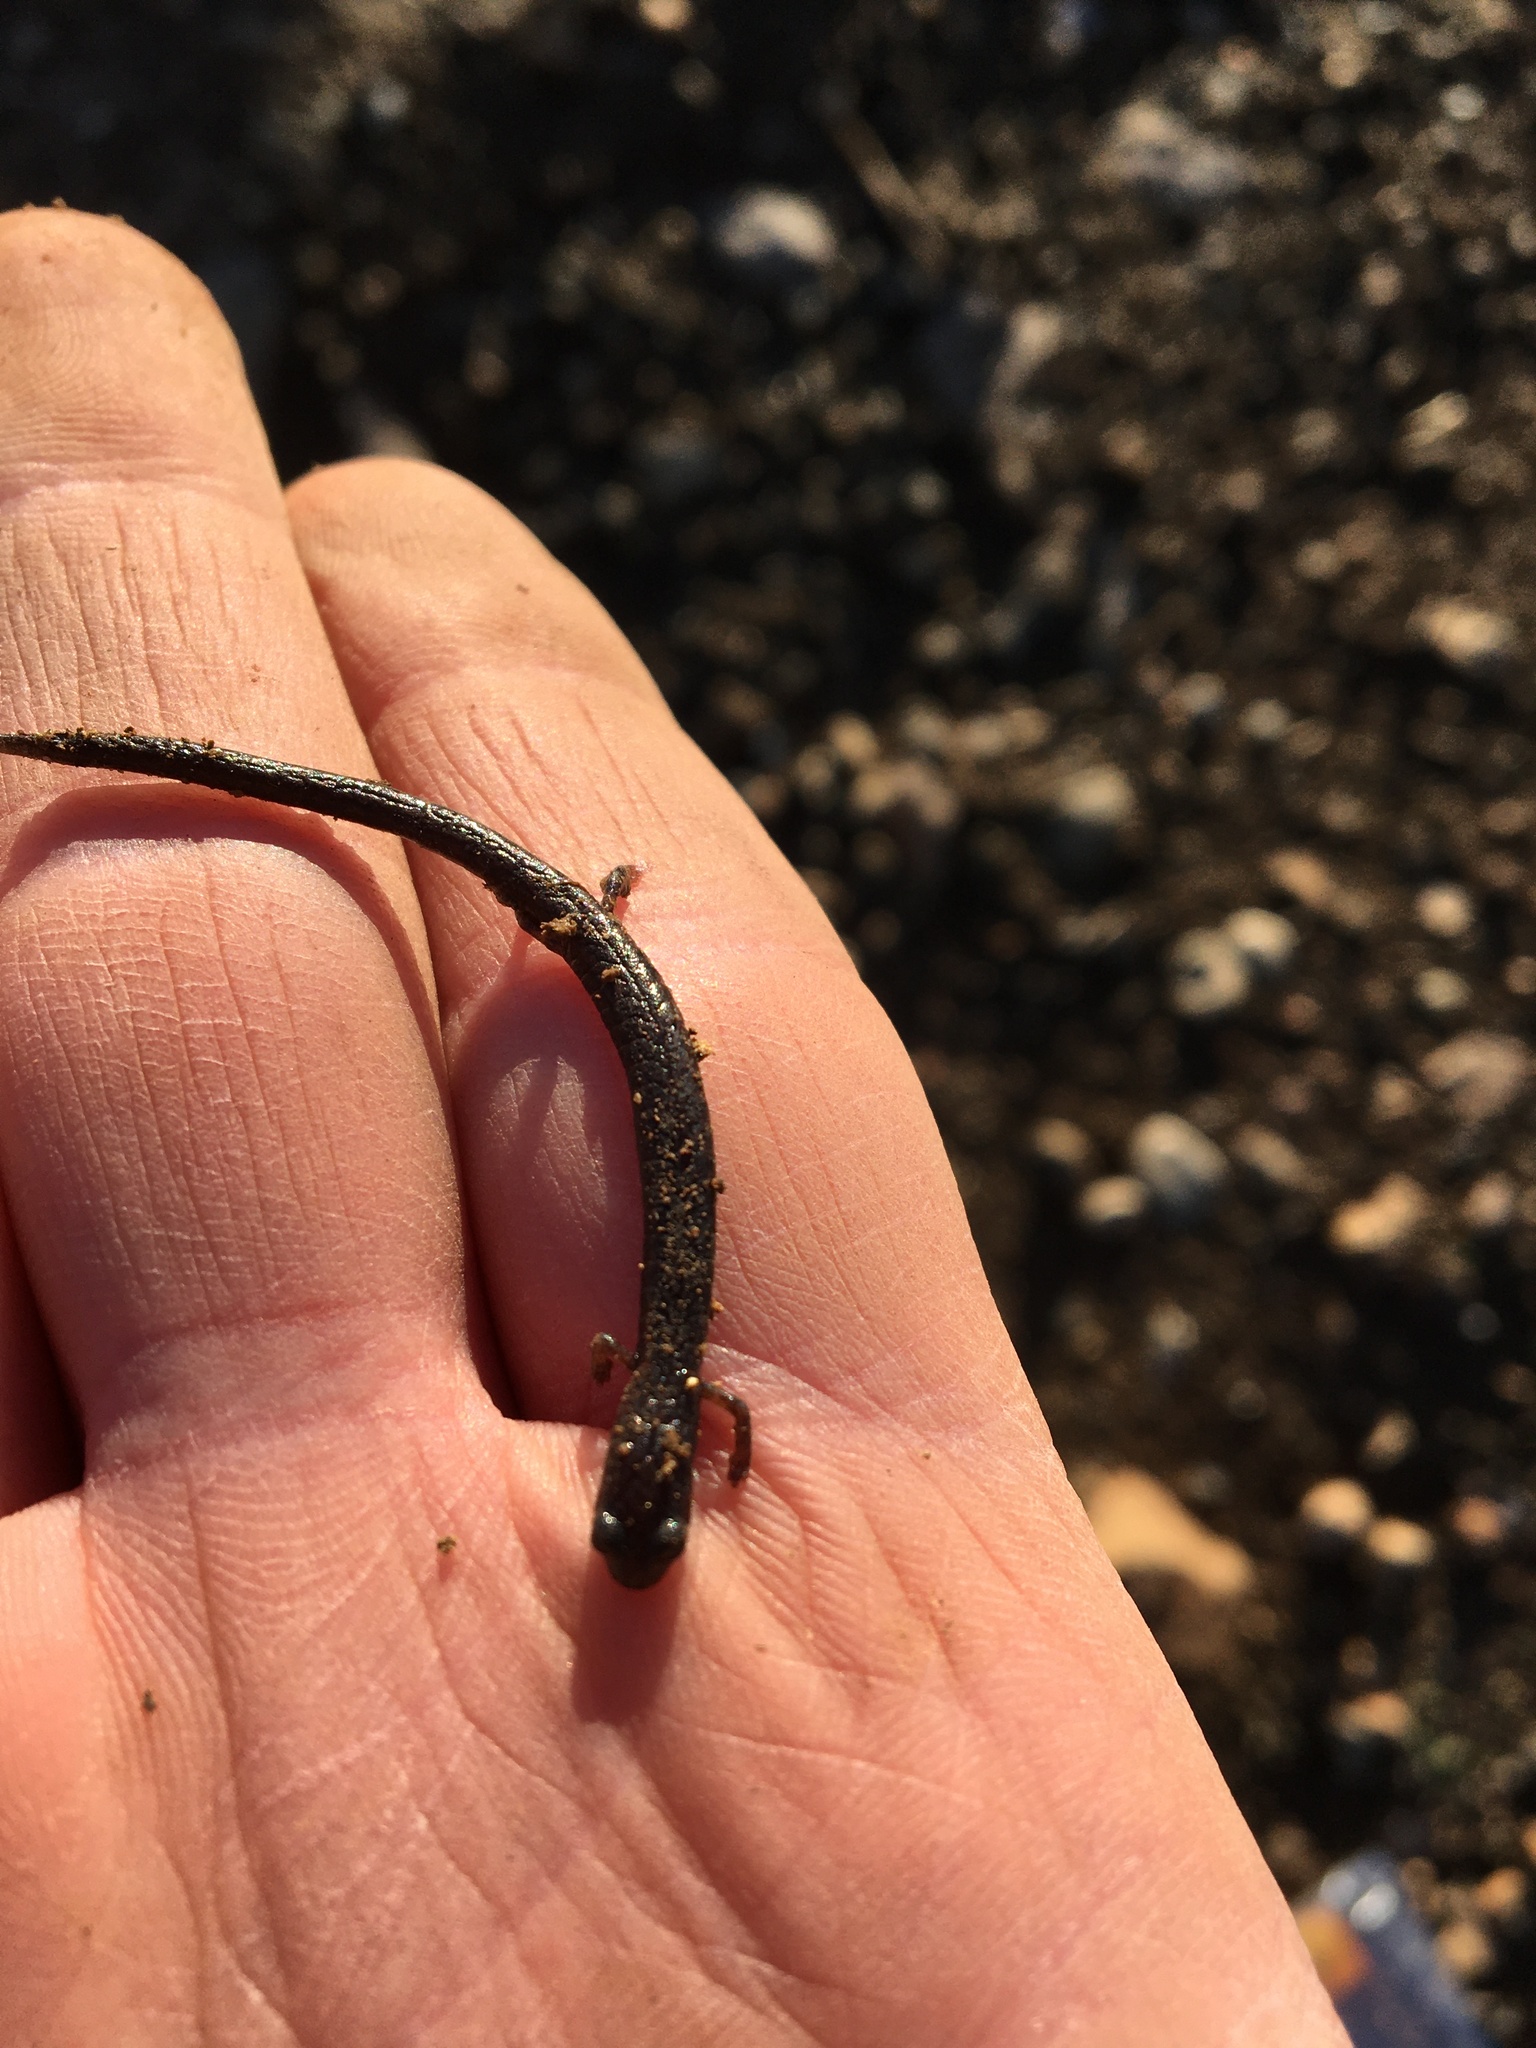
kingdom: Animalia
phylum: Chordata
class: Amphibia
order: Caudata
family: Plethodontidae
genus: Batrachoseps
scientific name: Batrachoseps nigriventris
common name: Black-bellied slender salamander
